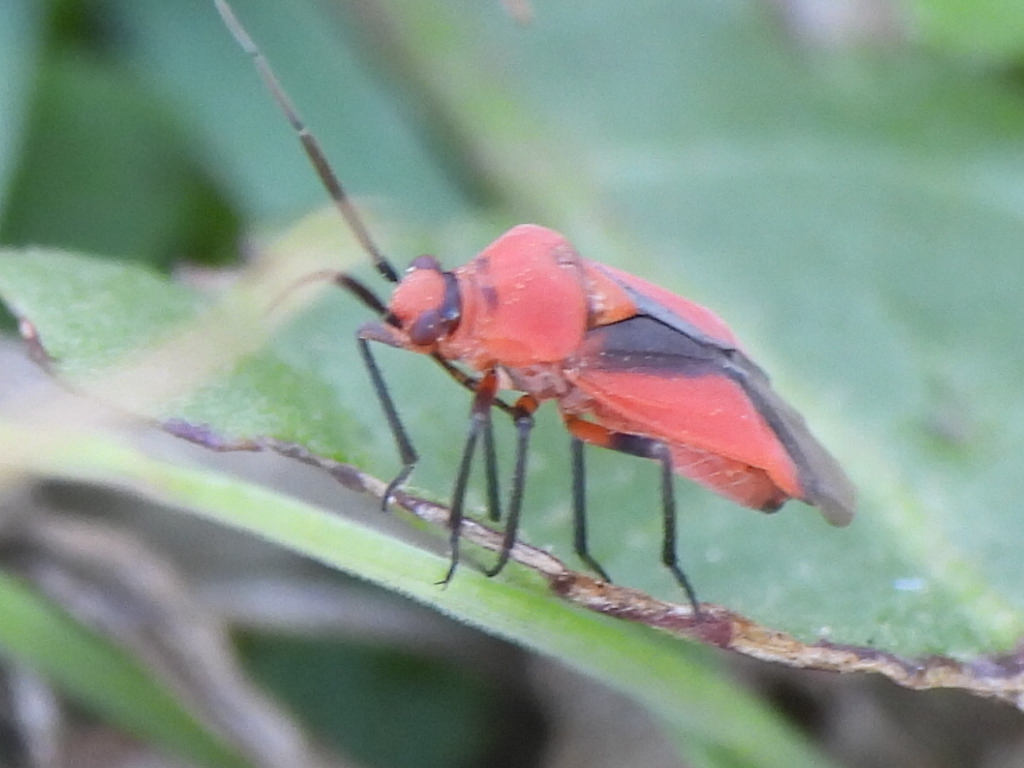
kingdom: Animalia
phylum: Arthropoda
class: Insecta
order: Hemiptera
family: Miridae
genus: Oncerometopus
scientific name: Oncerometopus nigriclavus
